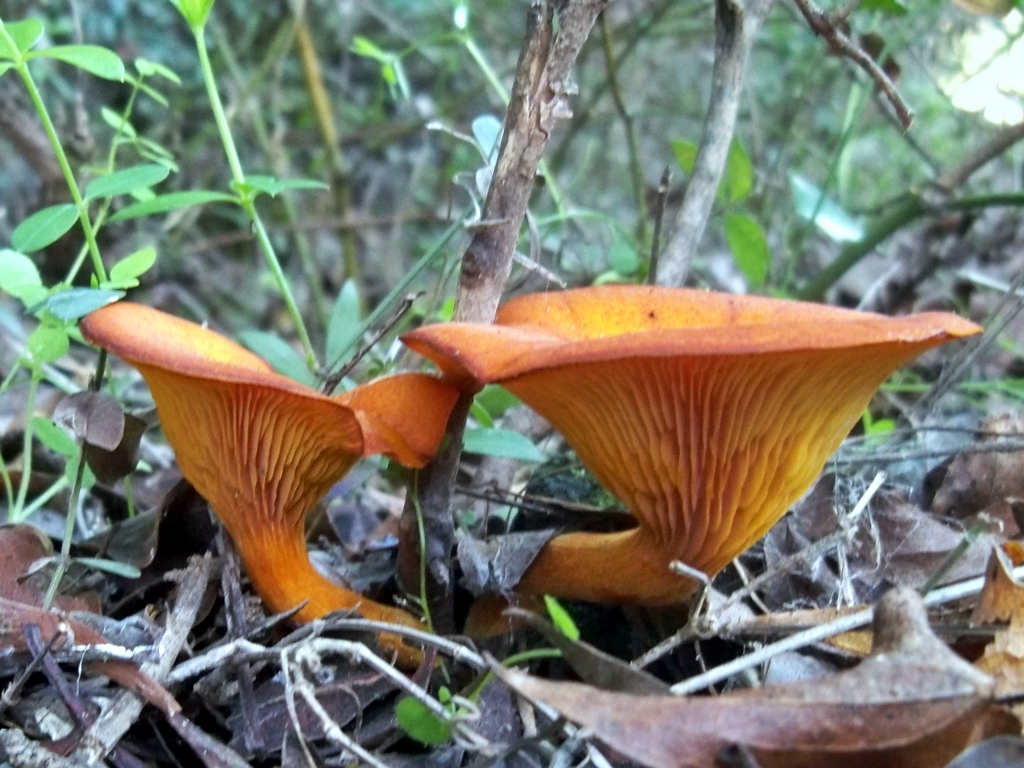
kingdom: Fungi
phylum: Basidiomycota
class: Agaricomycetes
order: Agaricales
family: Omphalotaceae
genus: Omphalotus
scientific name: Omphalotus olearius
